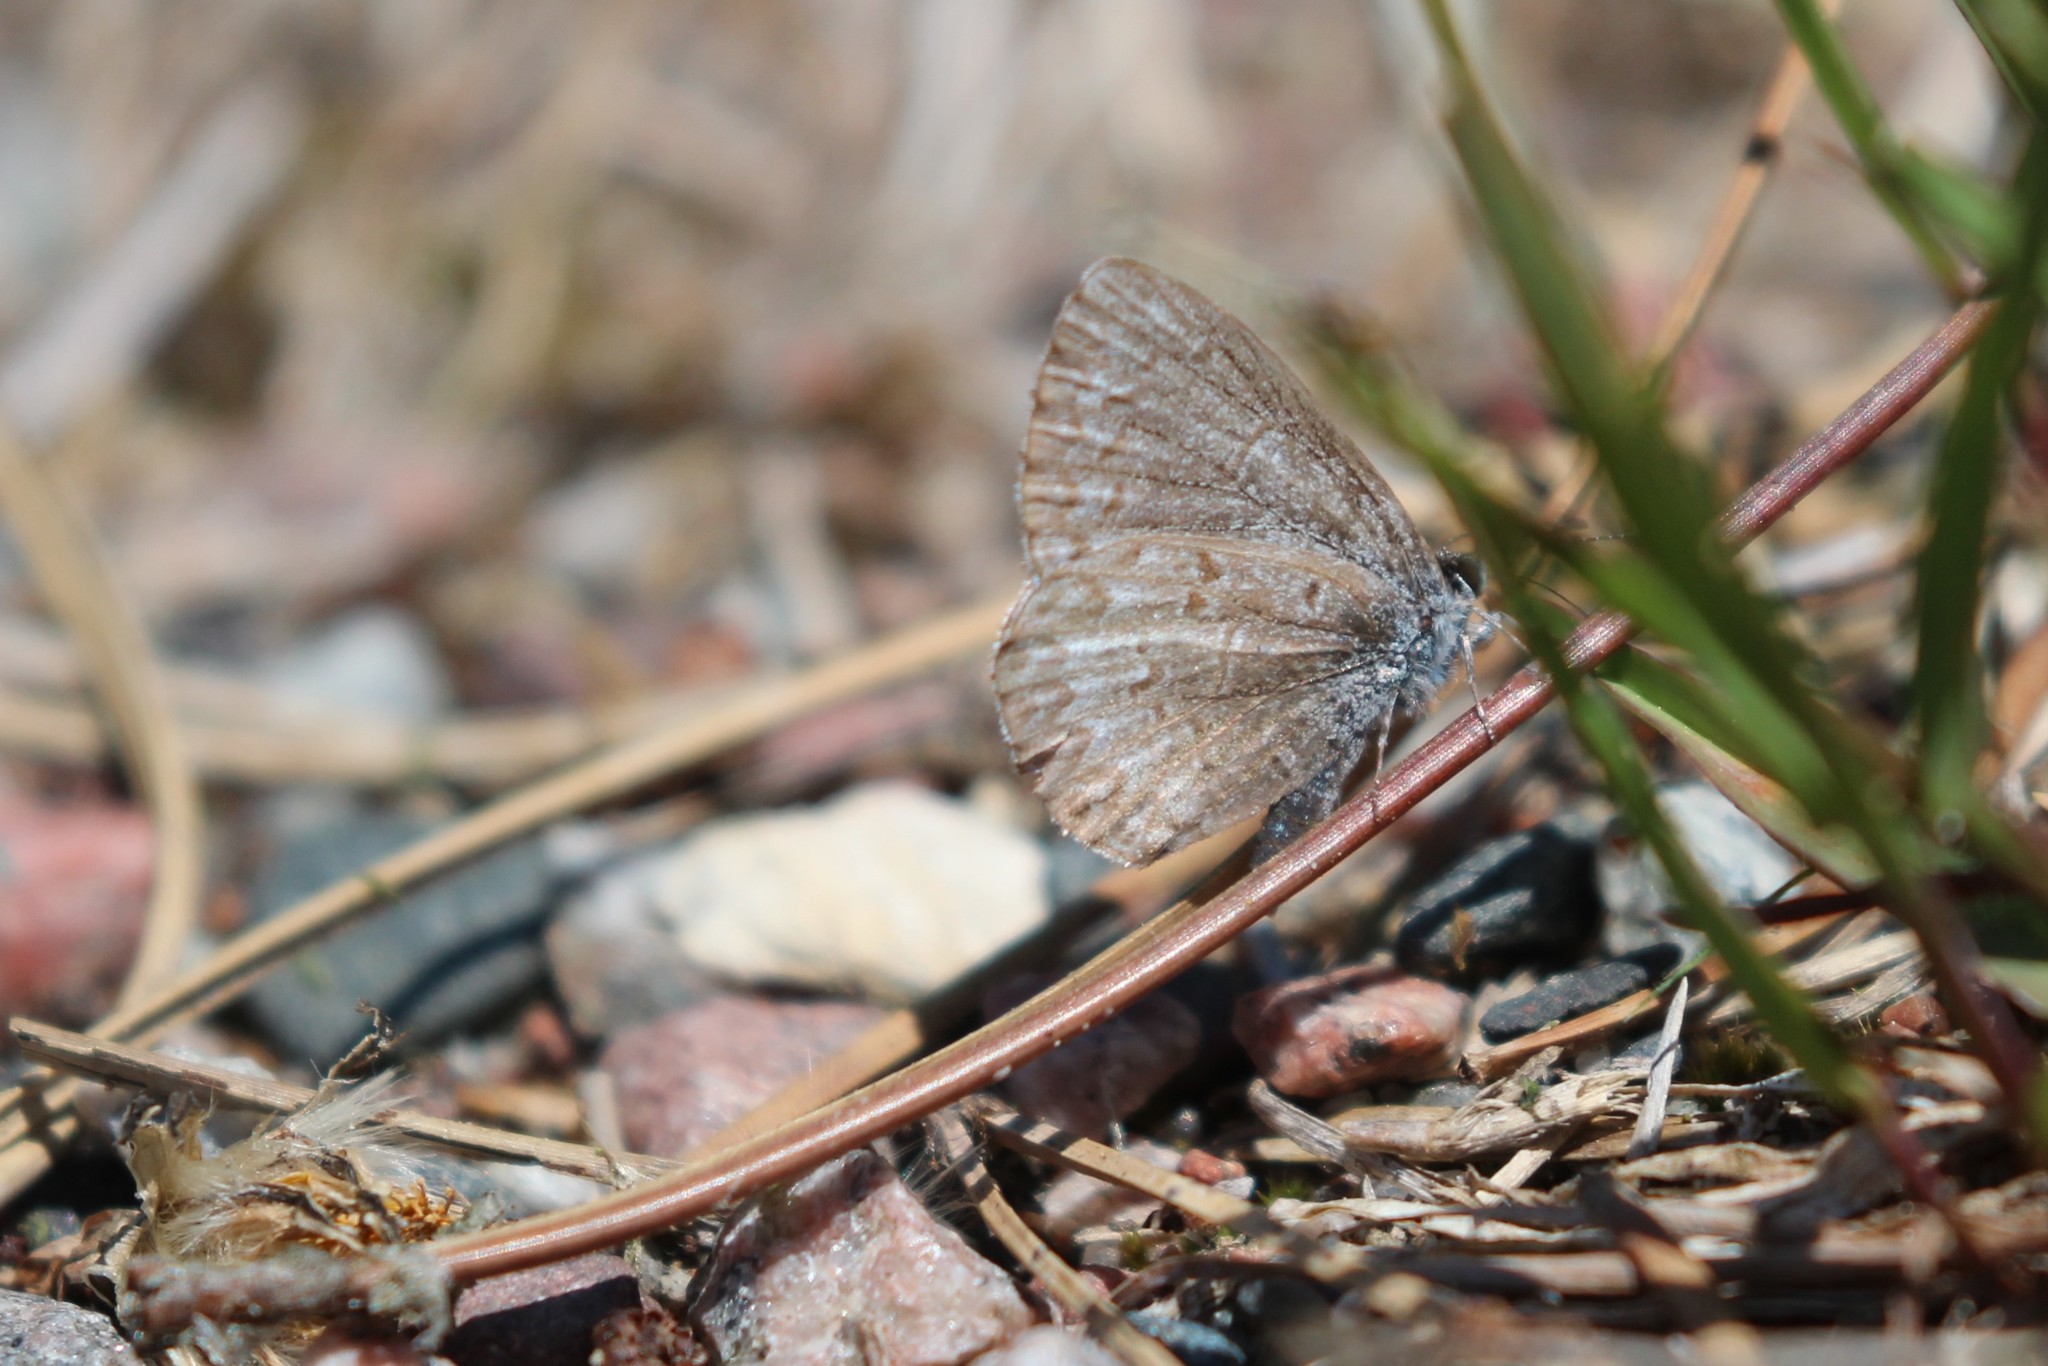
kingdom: Animalia
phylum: Arthropoda
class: Insecta
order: Lepidoptera
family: Lycaenidae
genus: Celastrina
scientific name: Celastrina lucia
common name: Lucia azure
